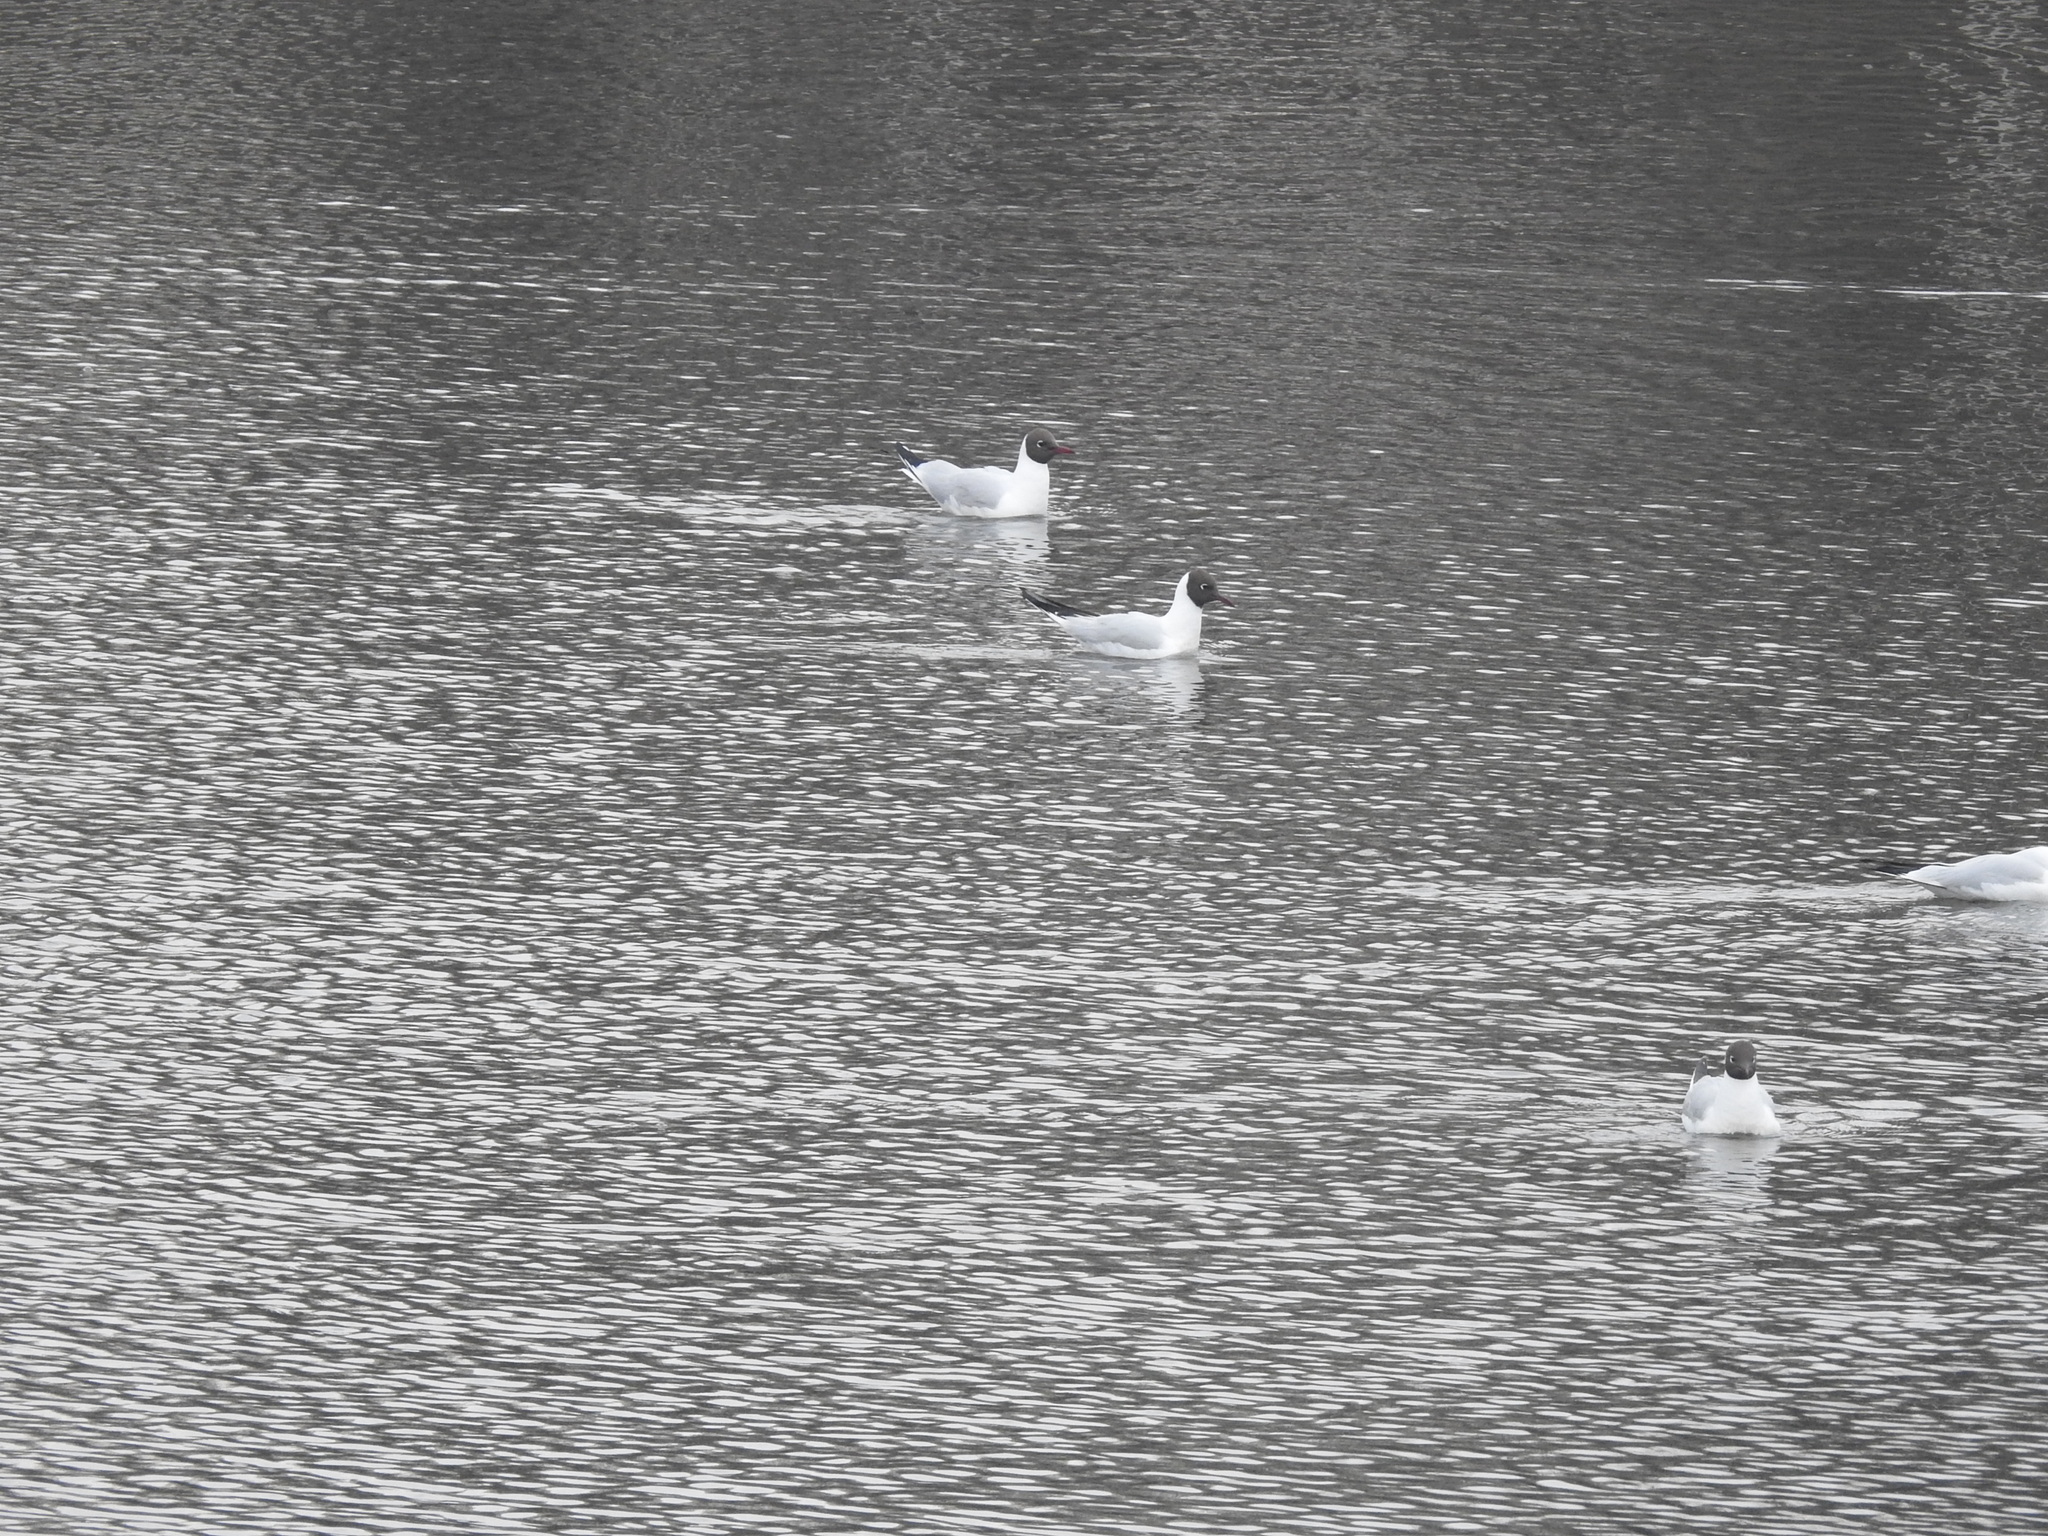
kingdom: Animalia
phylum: Chordata
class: Aves
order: Charadriiformes
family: Laridae
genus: Chroicocephalus
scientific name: Chroicocephalus ridibundus
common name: Black-headed gull
